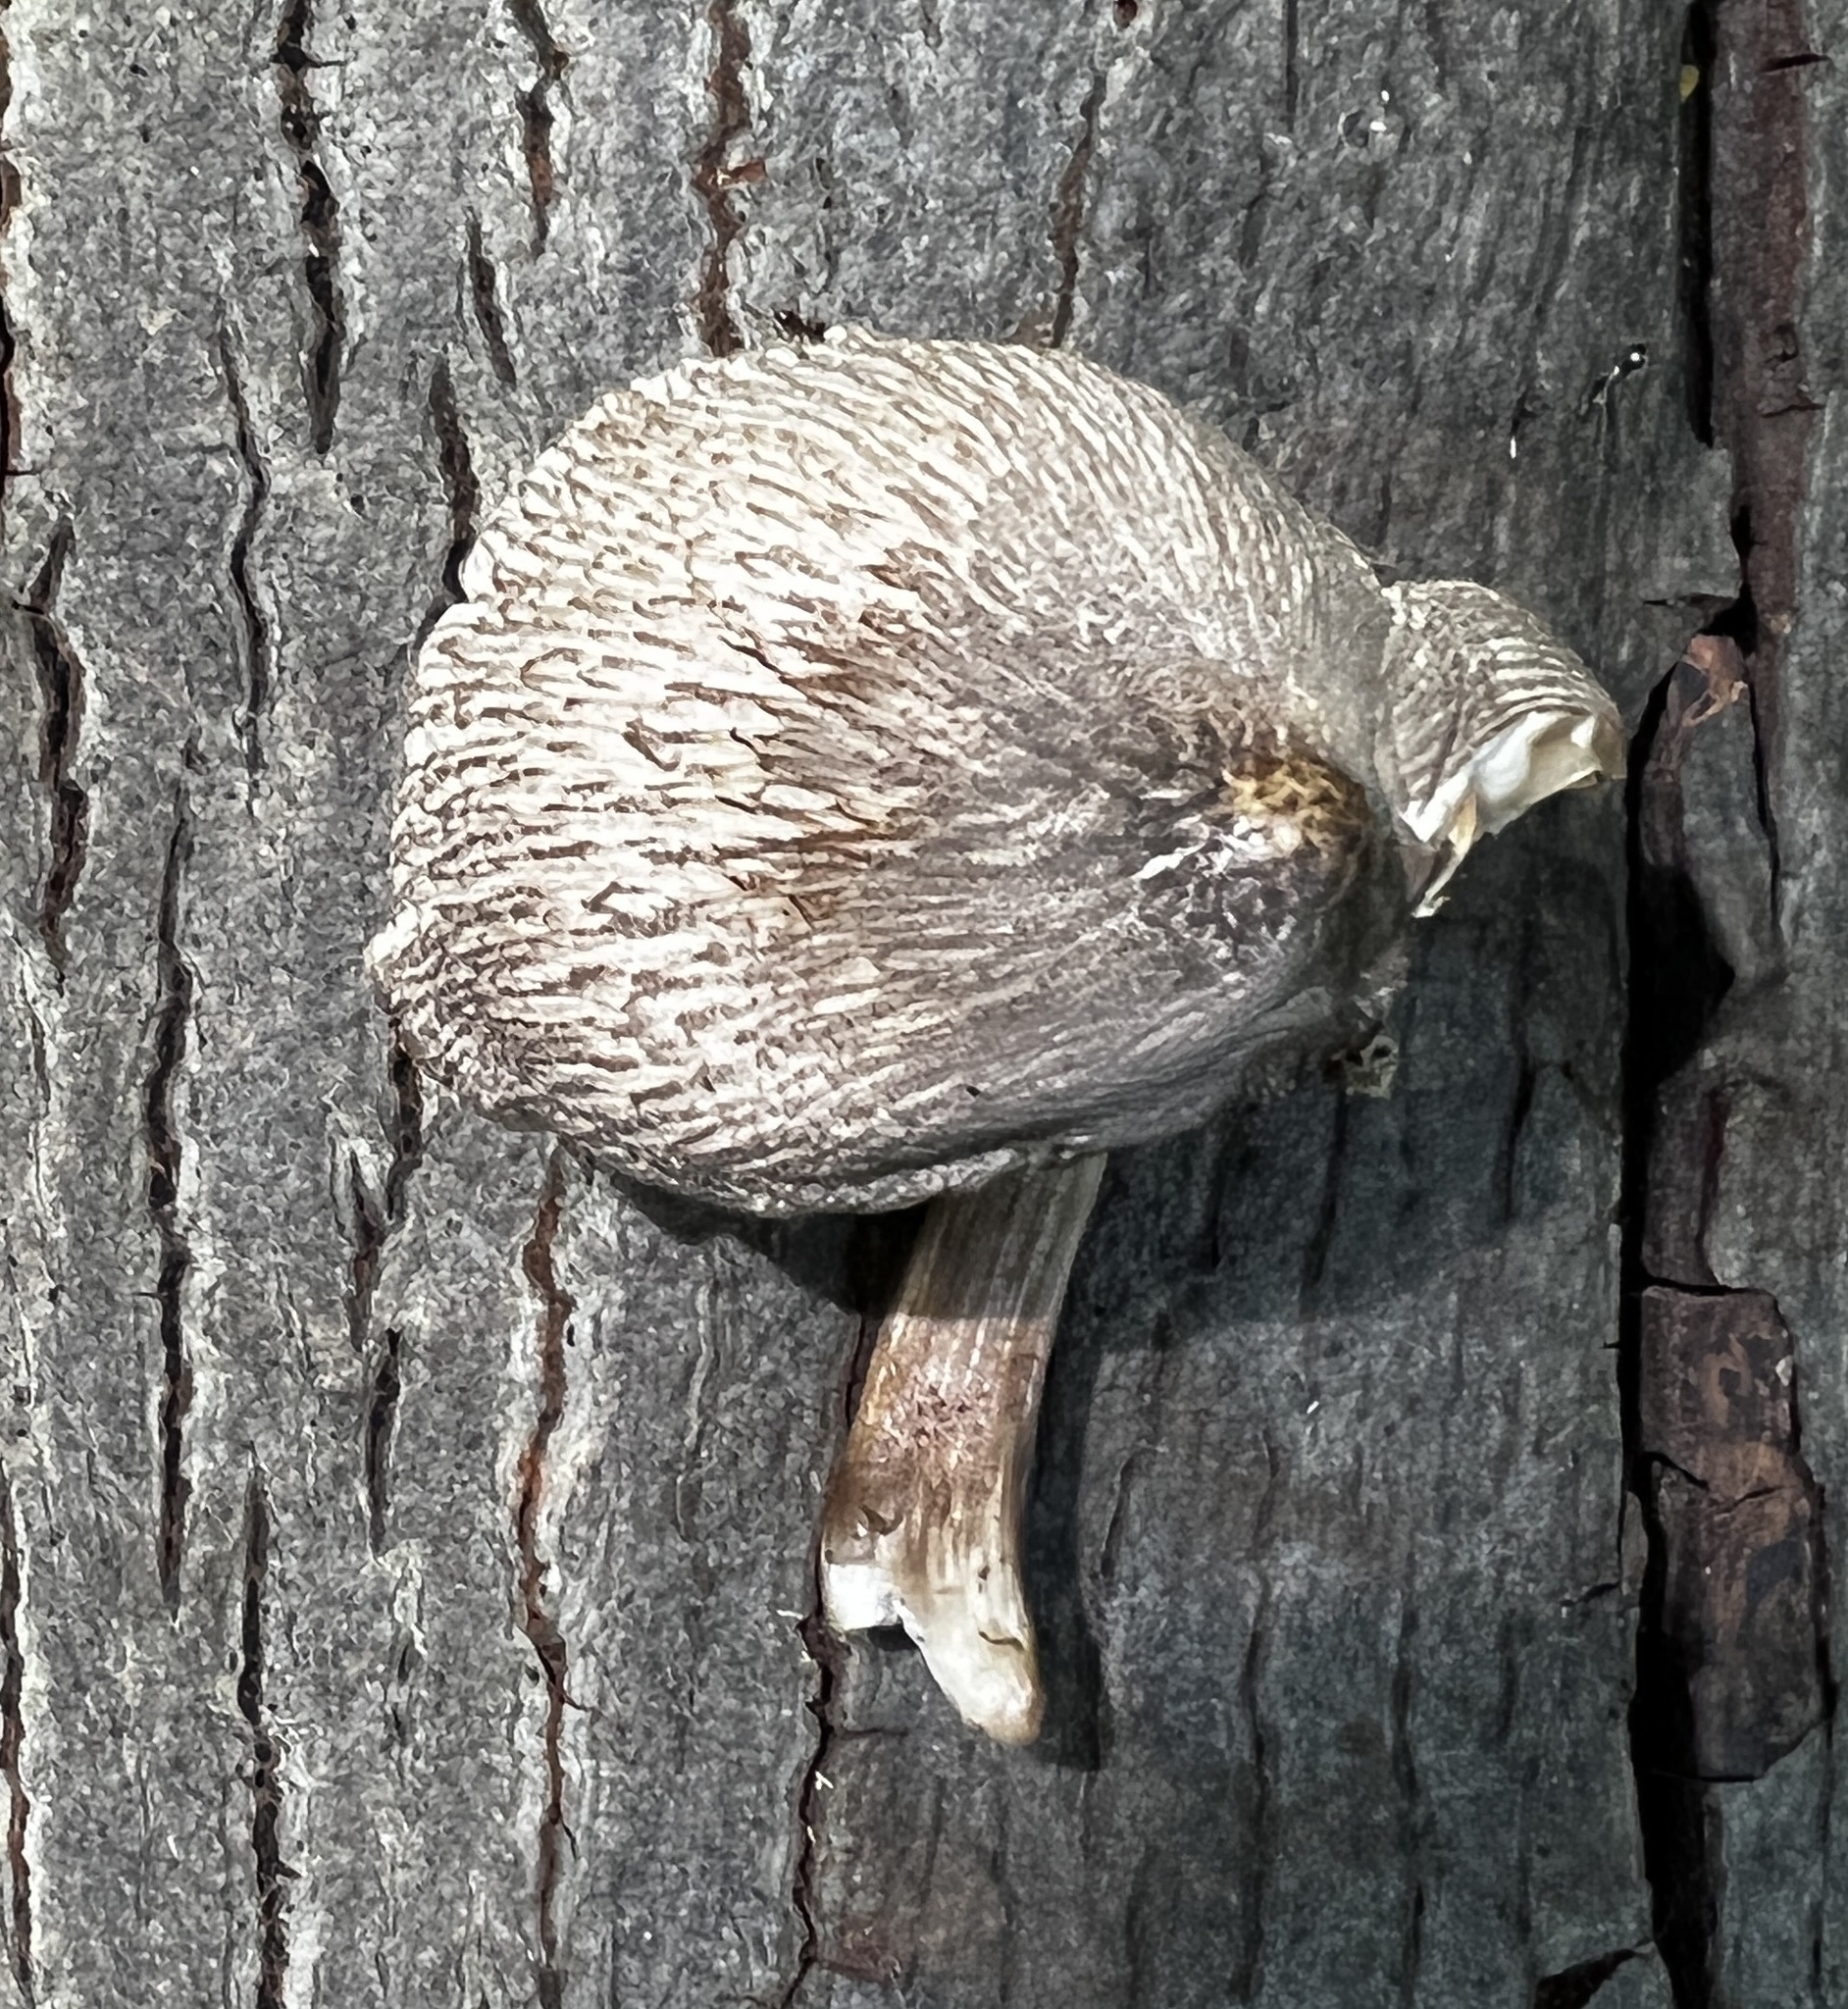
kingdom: Fungi
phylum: Basidiomycota
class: Agaricomycetes
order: Agaricales
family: Pluteaceae
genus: Pluteus
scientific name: Pluteus heteromarginatus
